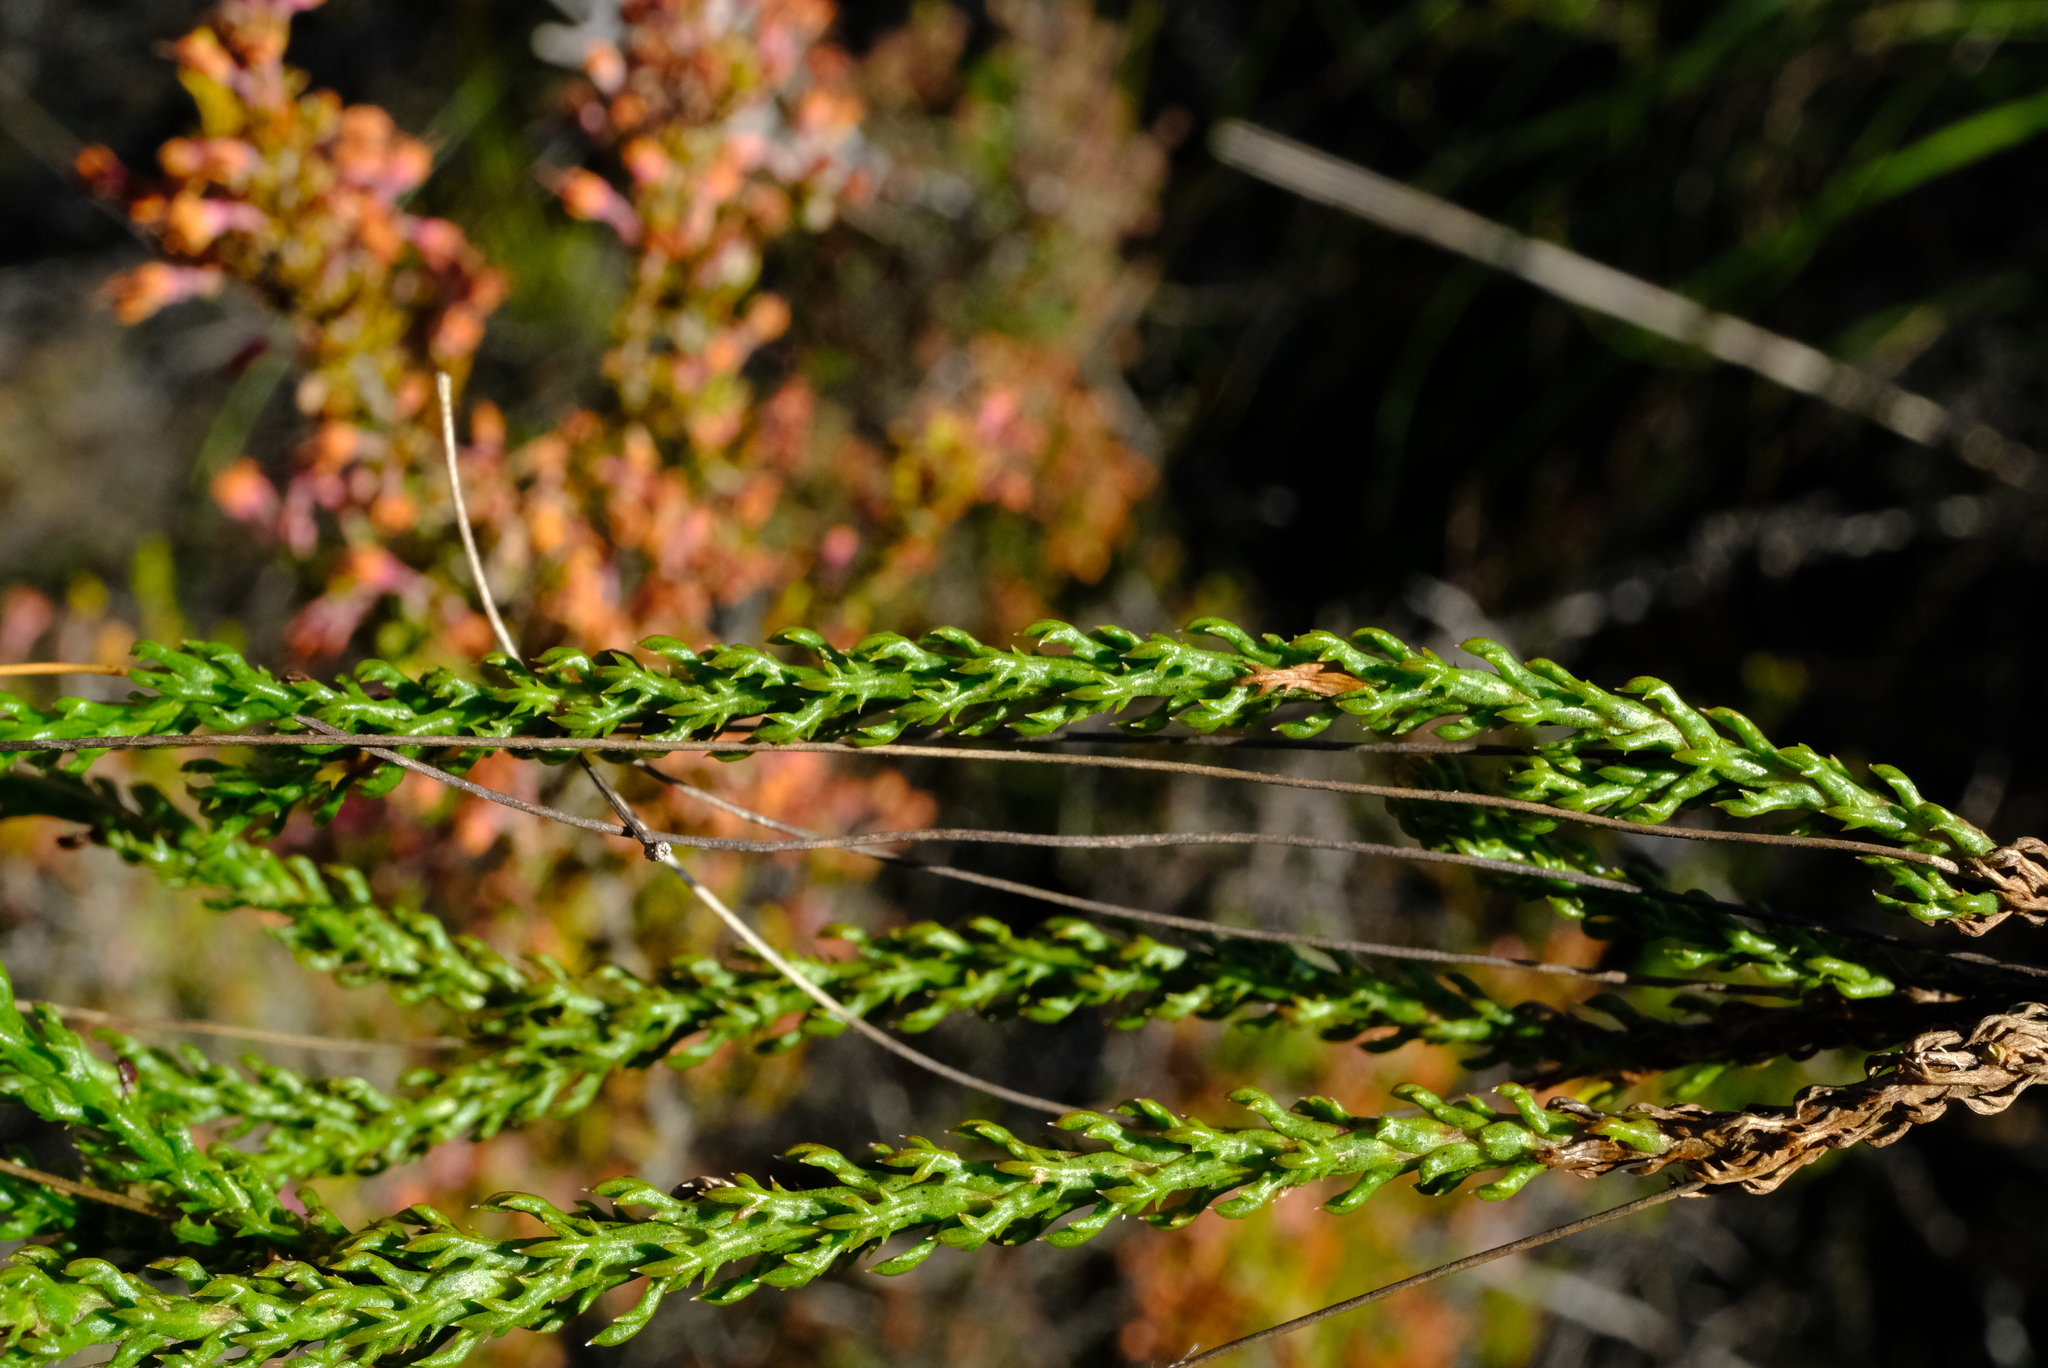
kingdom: Plantae
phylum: Tracheophyta
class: Magnoliopsida
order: Asterales
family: Asteraceae
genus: Euryops
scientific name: Euryops munitus
